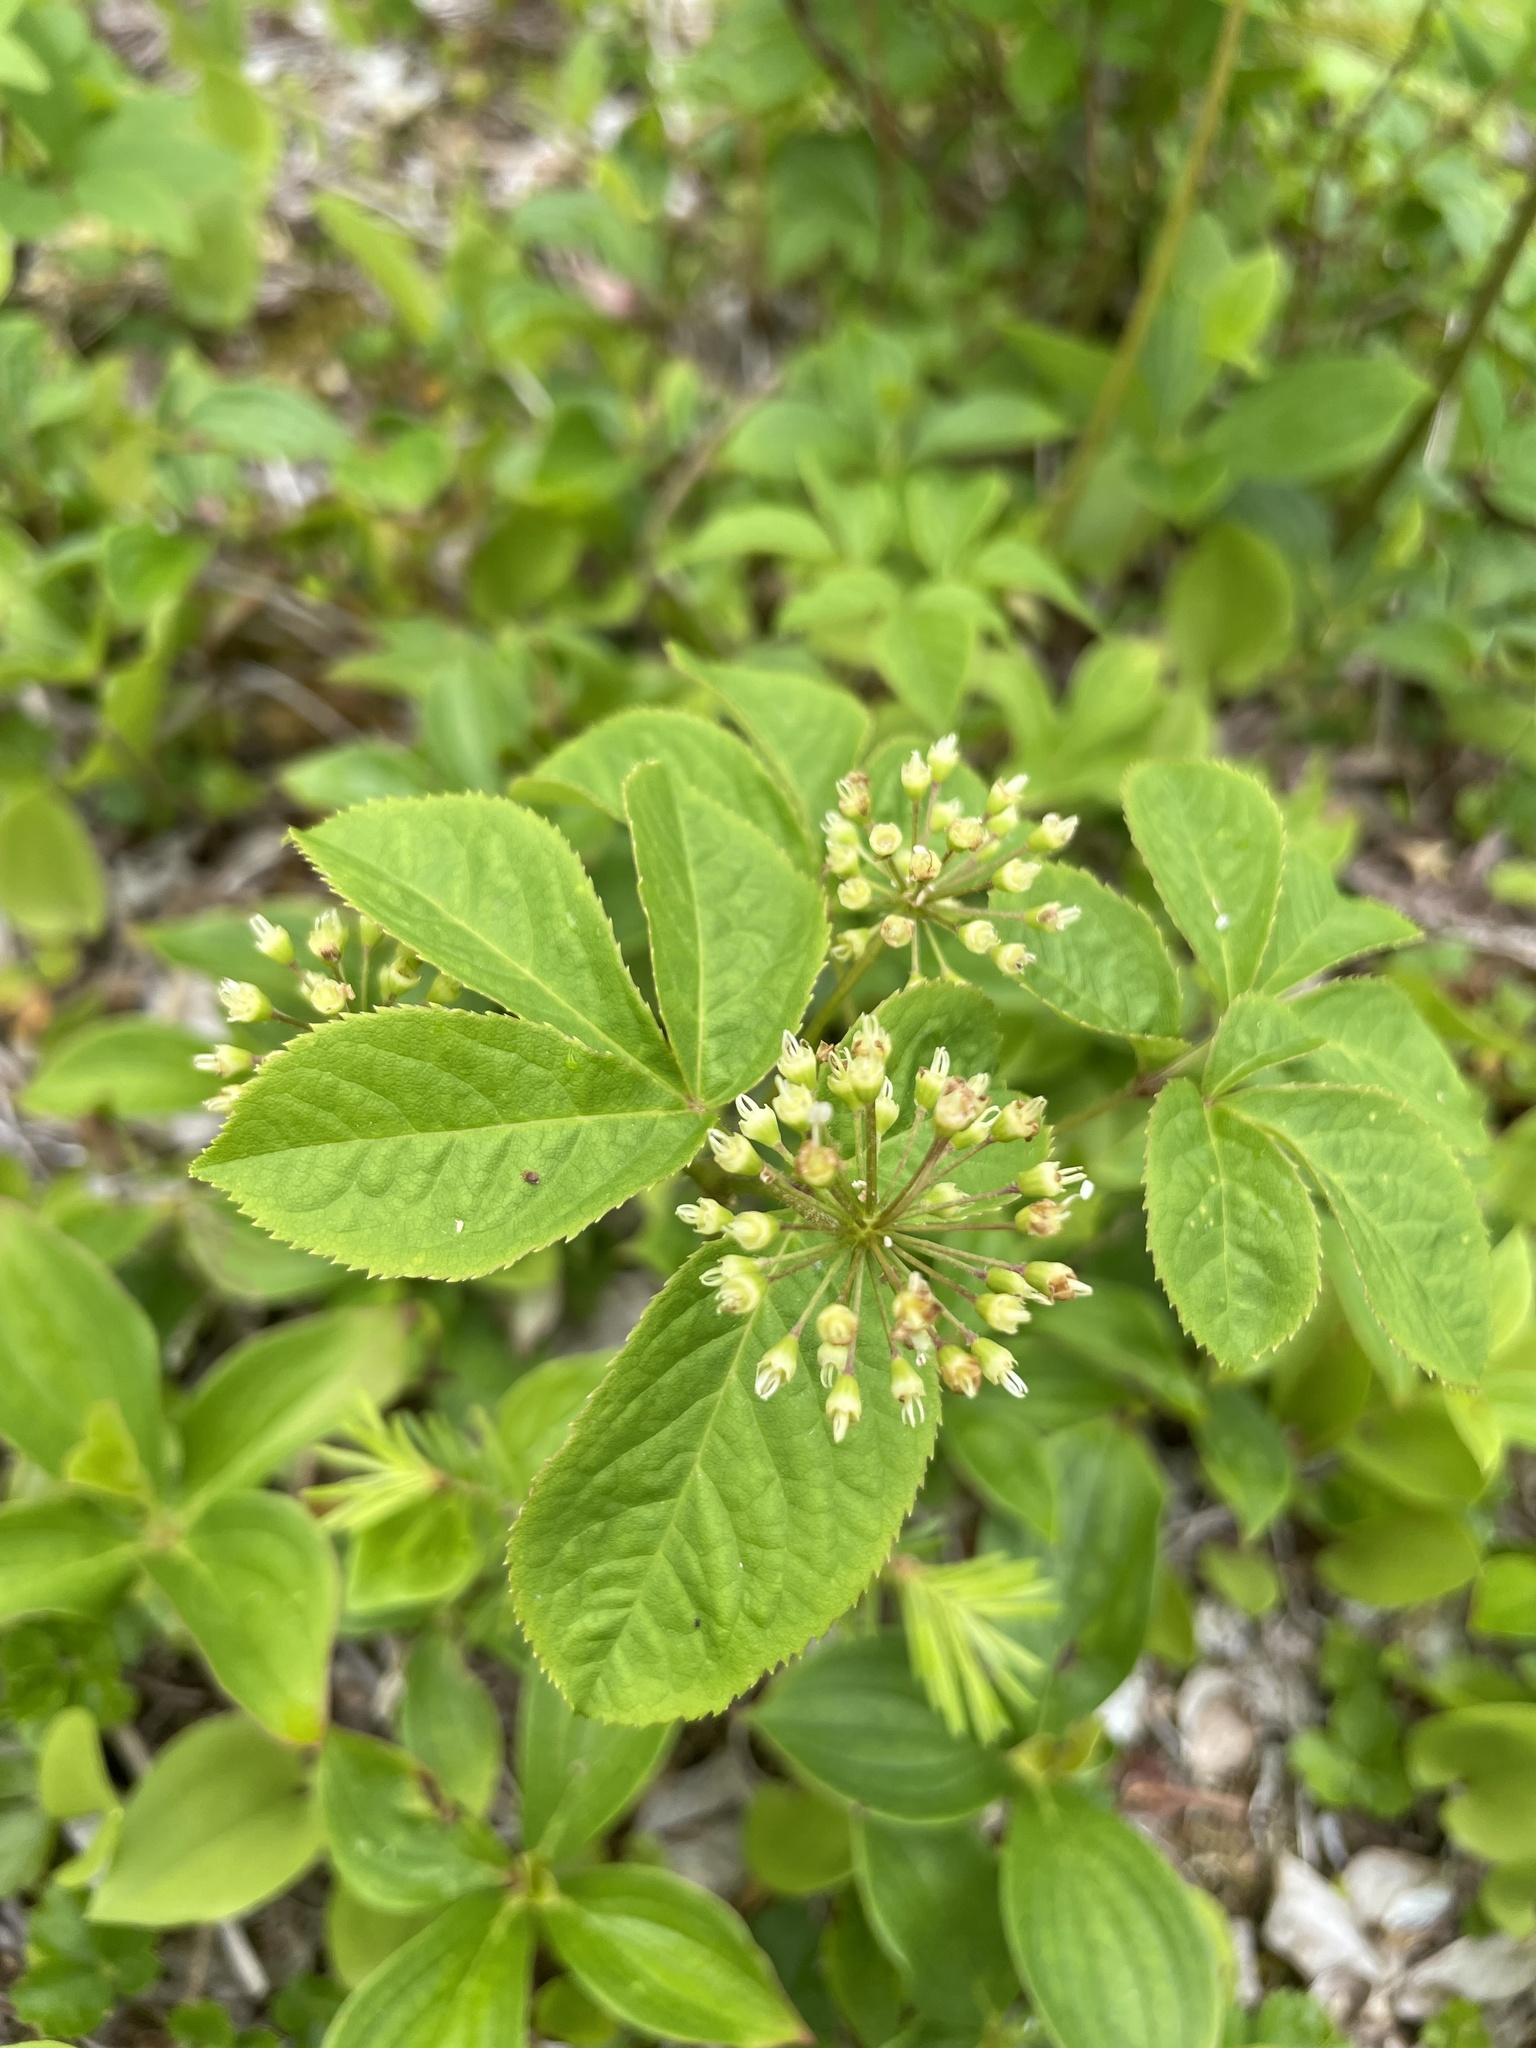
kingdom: Plantae
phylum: Tracheophyta
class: Magnoliopsida
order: Apiales
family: Araliaceae
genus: Aralia
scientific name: Aralia nudicaulis
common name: Wild sarsaparilla
